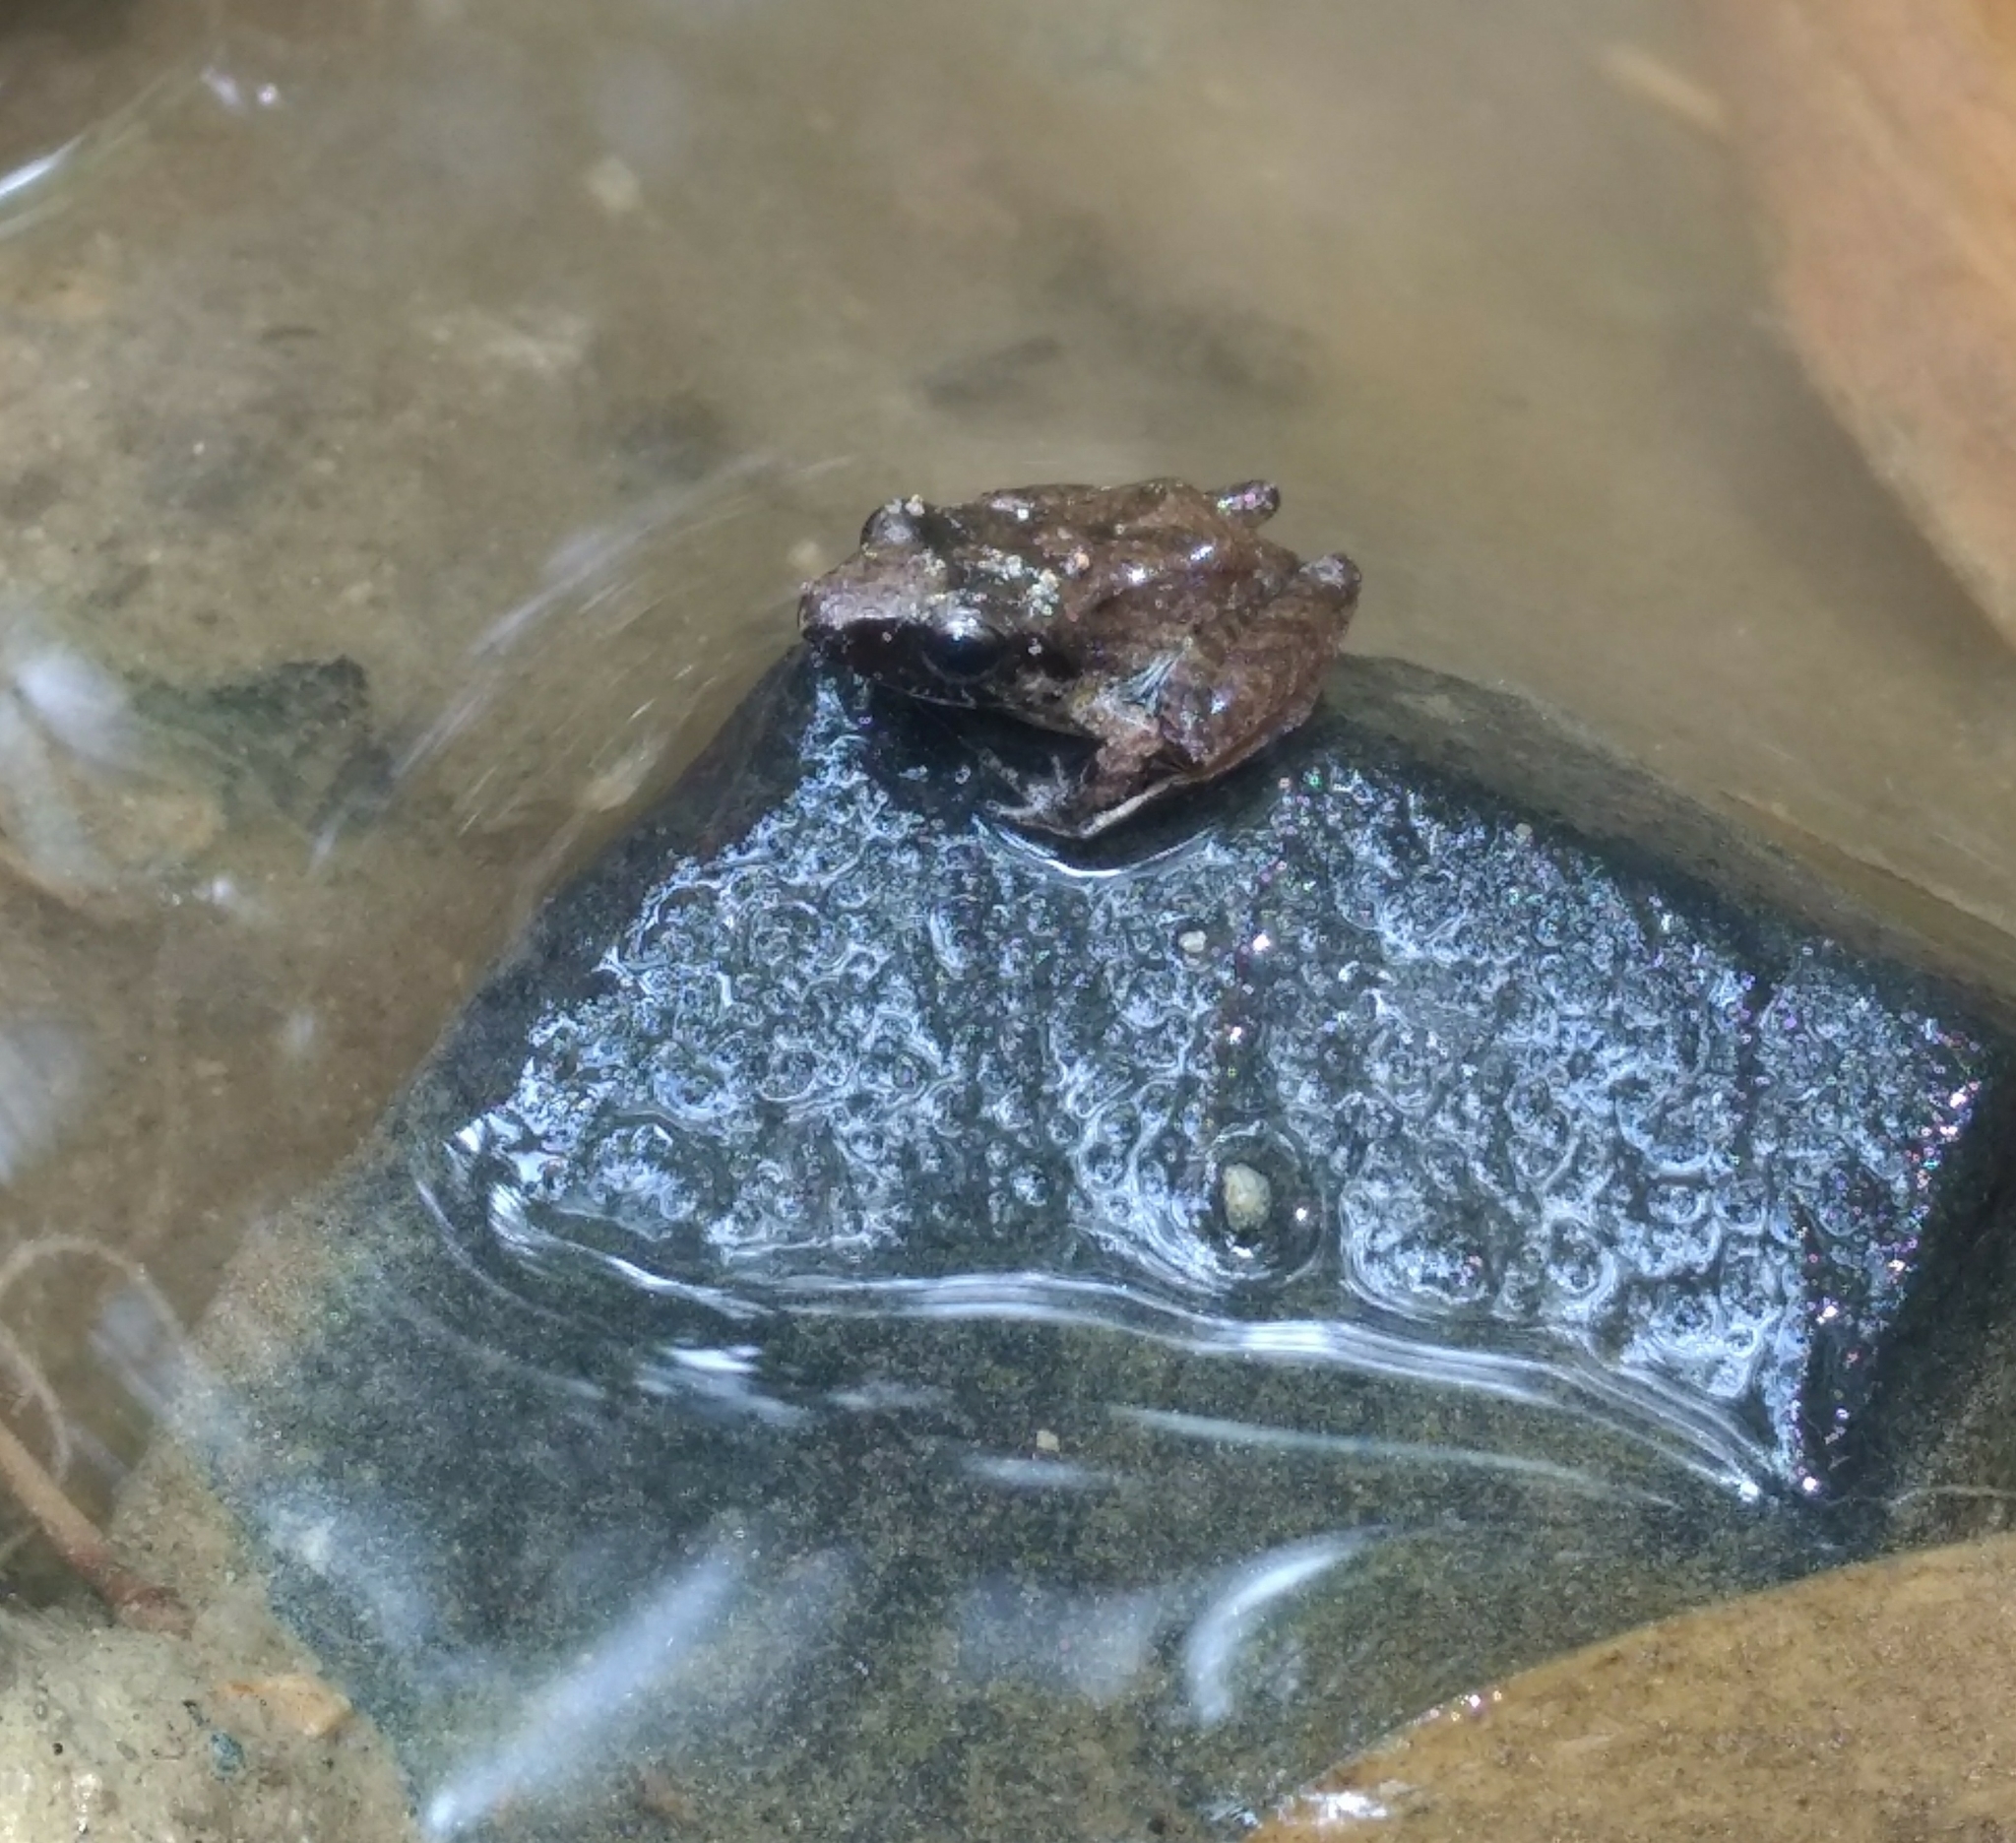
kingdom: Animalia
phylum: Chordata
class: Amphibia
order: Anura
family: Craugastoridae
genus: Pristimantis
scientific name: Pristimantis achatinus
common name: Cachabi robber frog
